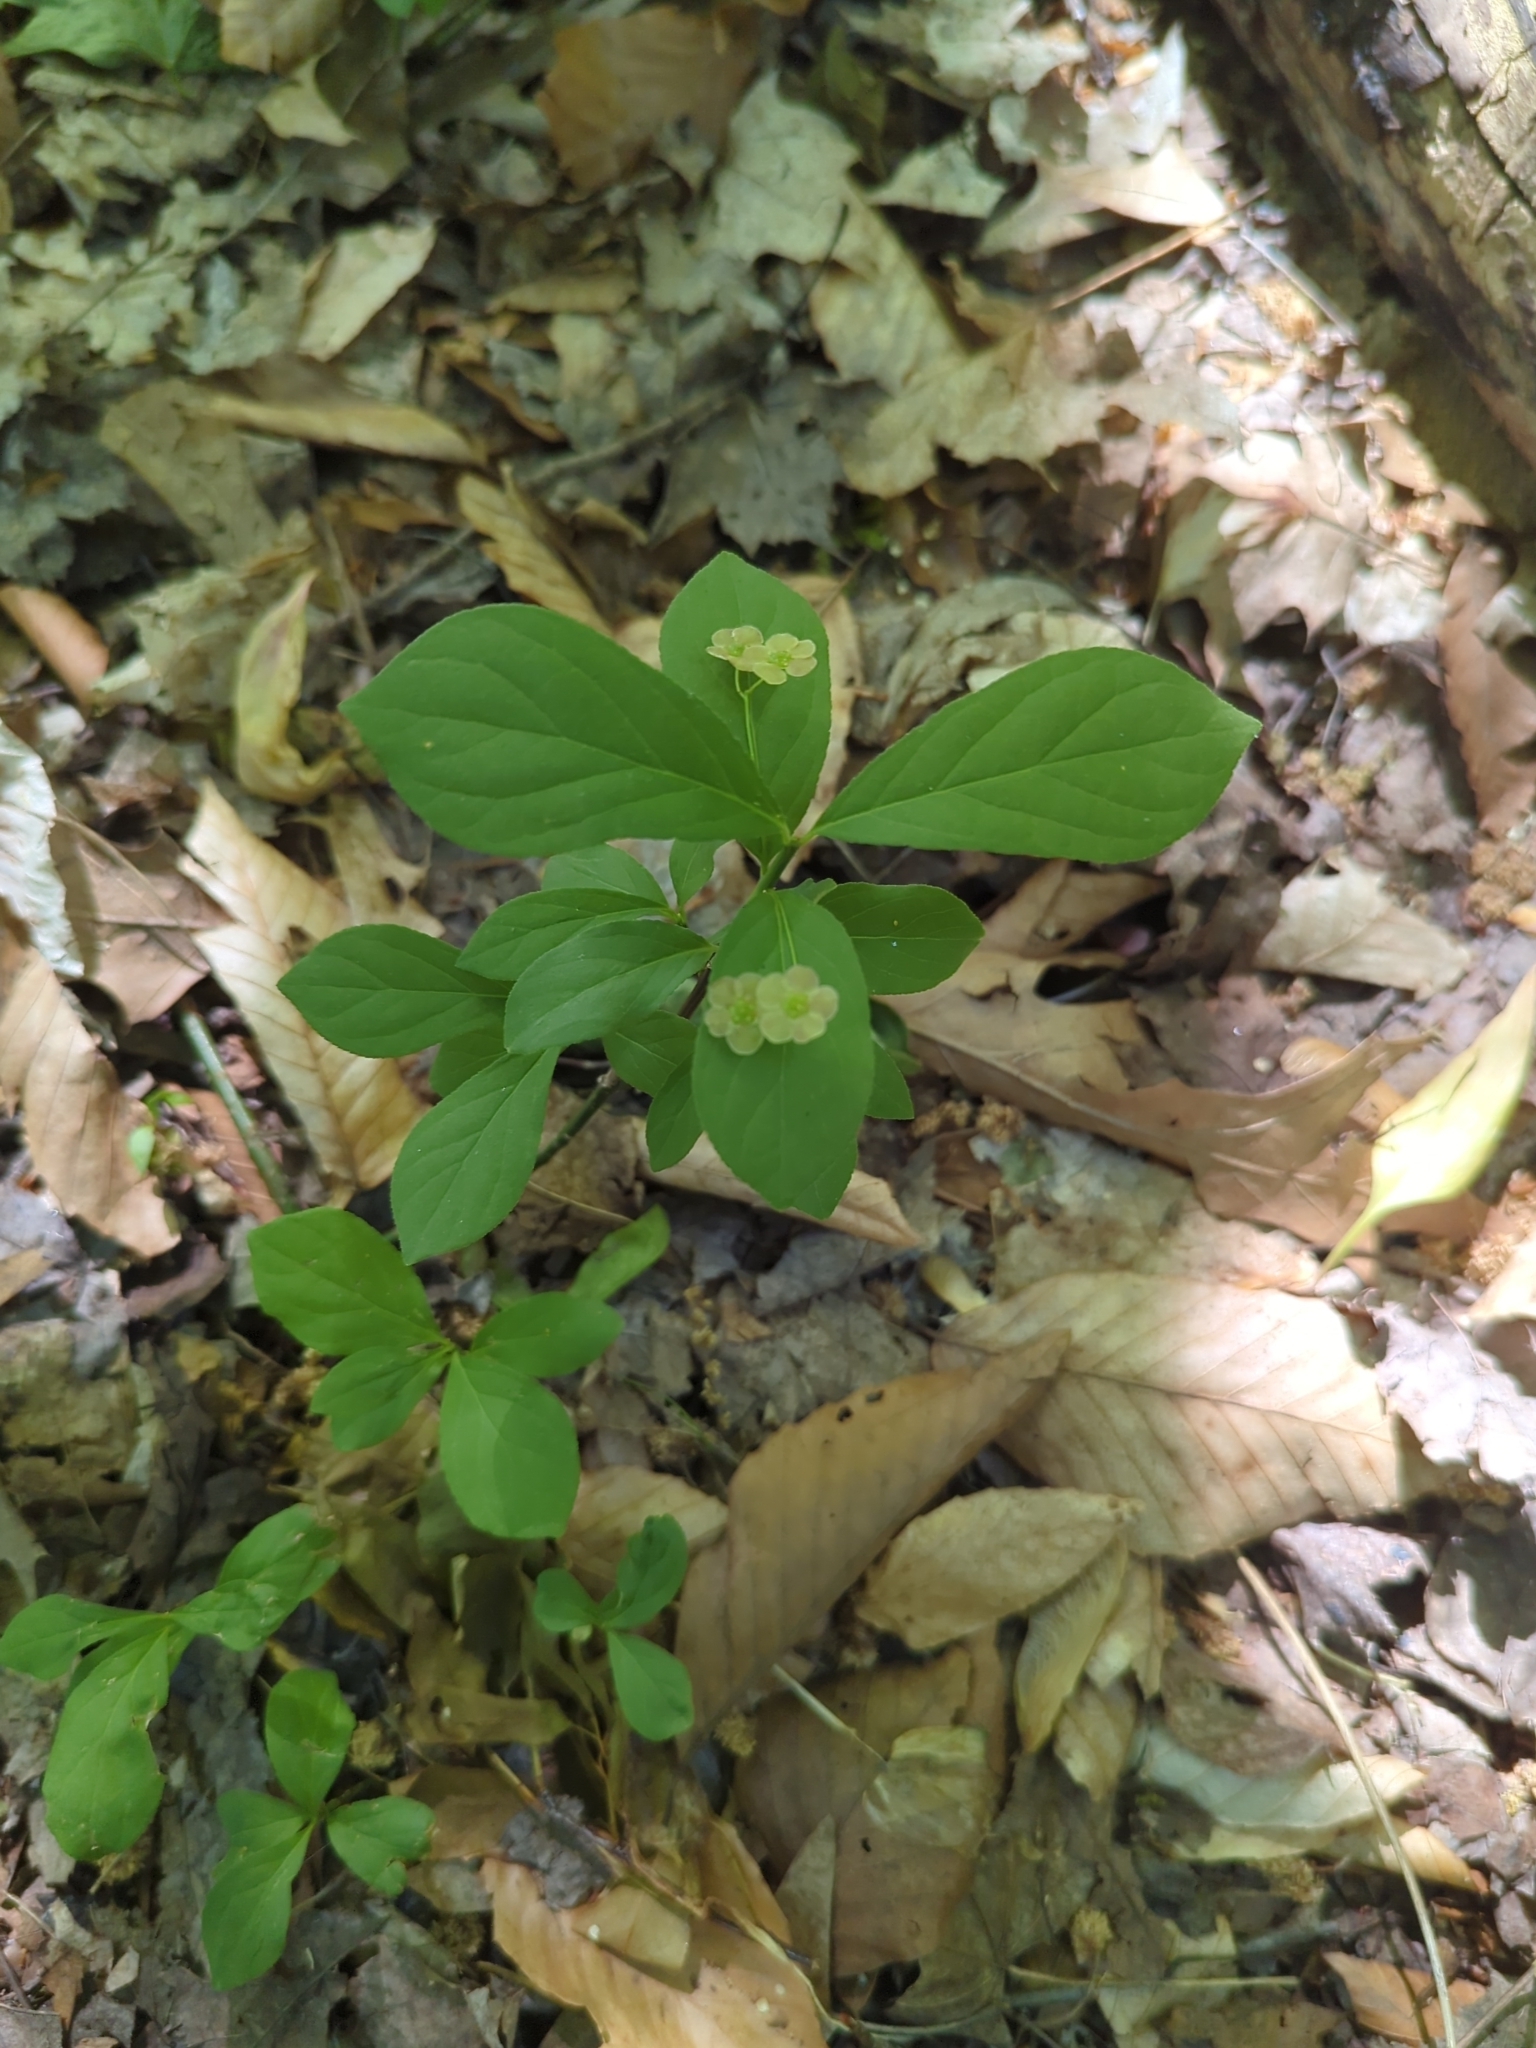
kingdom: Plantae
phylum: Tracheophyta
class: Magnoliopsida
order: Celastrales
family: Celastraceae
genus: Euonymus
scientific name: Euonymus obovatus
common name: Running strawberry-bush
